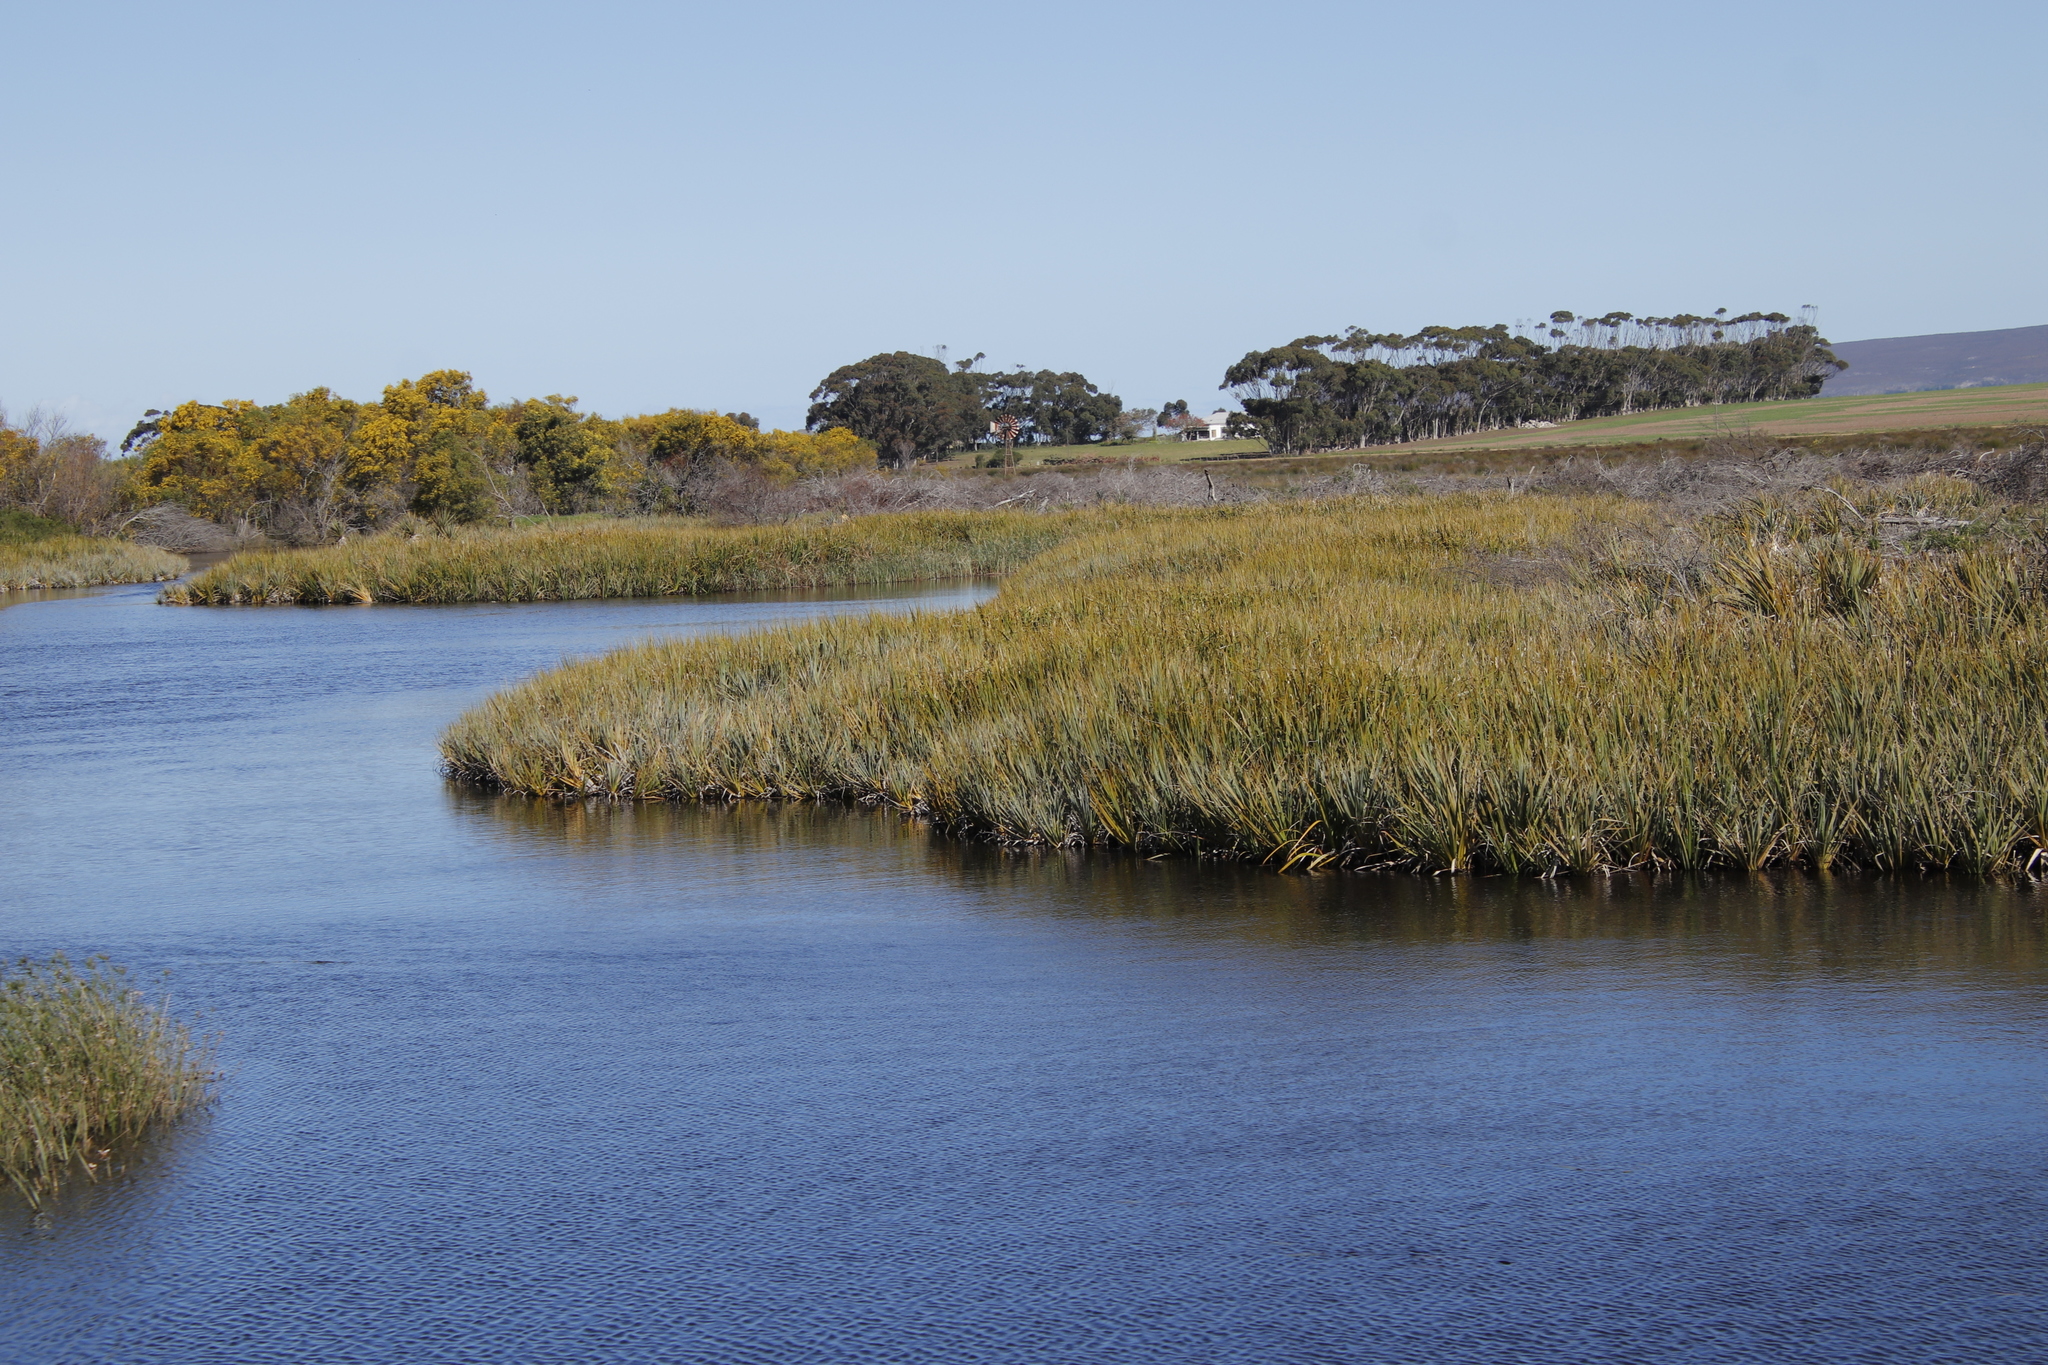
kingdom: Plantae
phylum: Tracheophyta
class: Liliopsida
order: Poales
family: Thurniaceae
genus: Prionium
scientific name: Prionium serratum
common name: Palmiet
